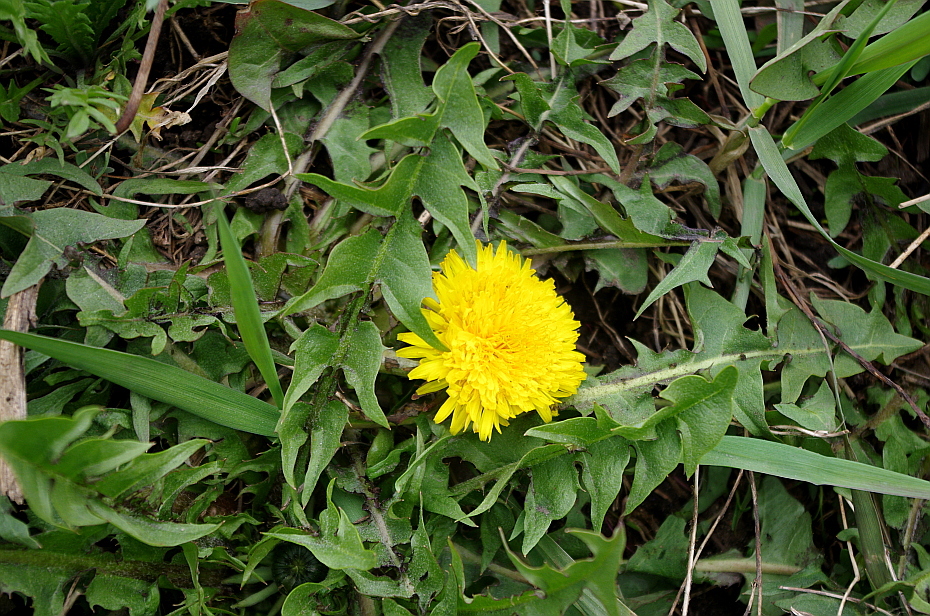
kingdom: Plantae
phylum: Tracheophyta
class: Magnoliopsida
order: Asterales
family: Asteraceae
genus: Taraxacum
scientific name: Taraxacum officinale
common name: Common dandelion
